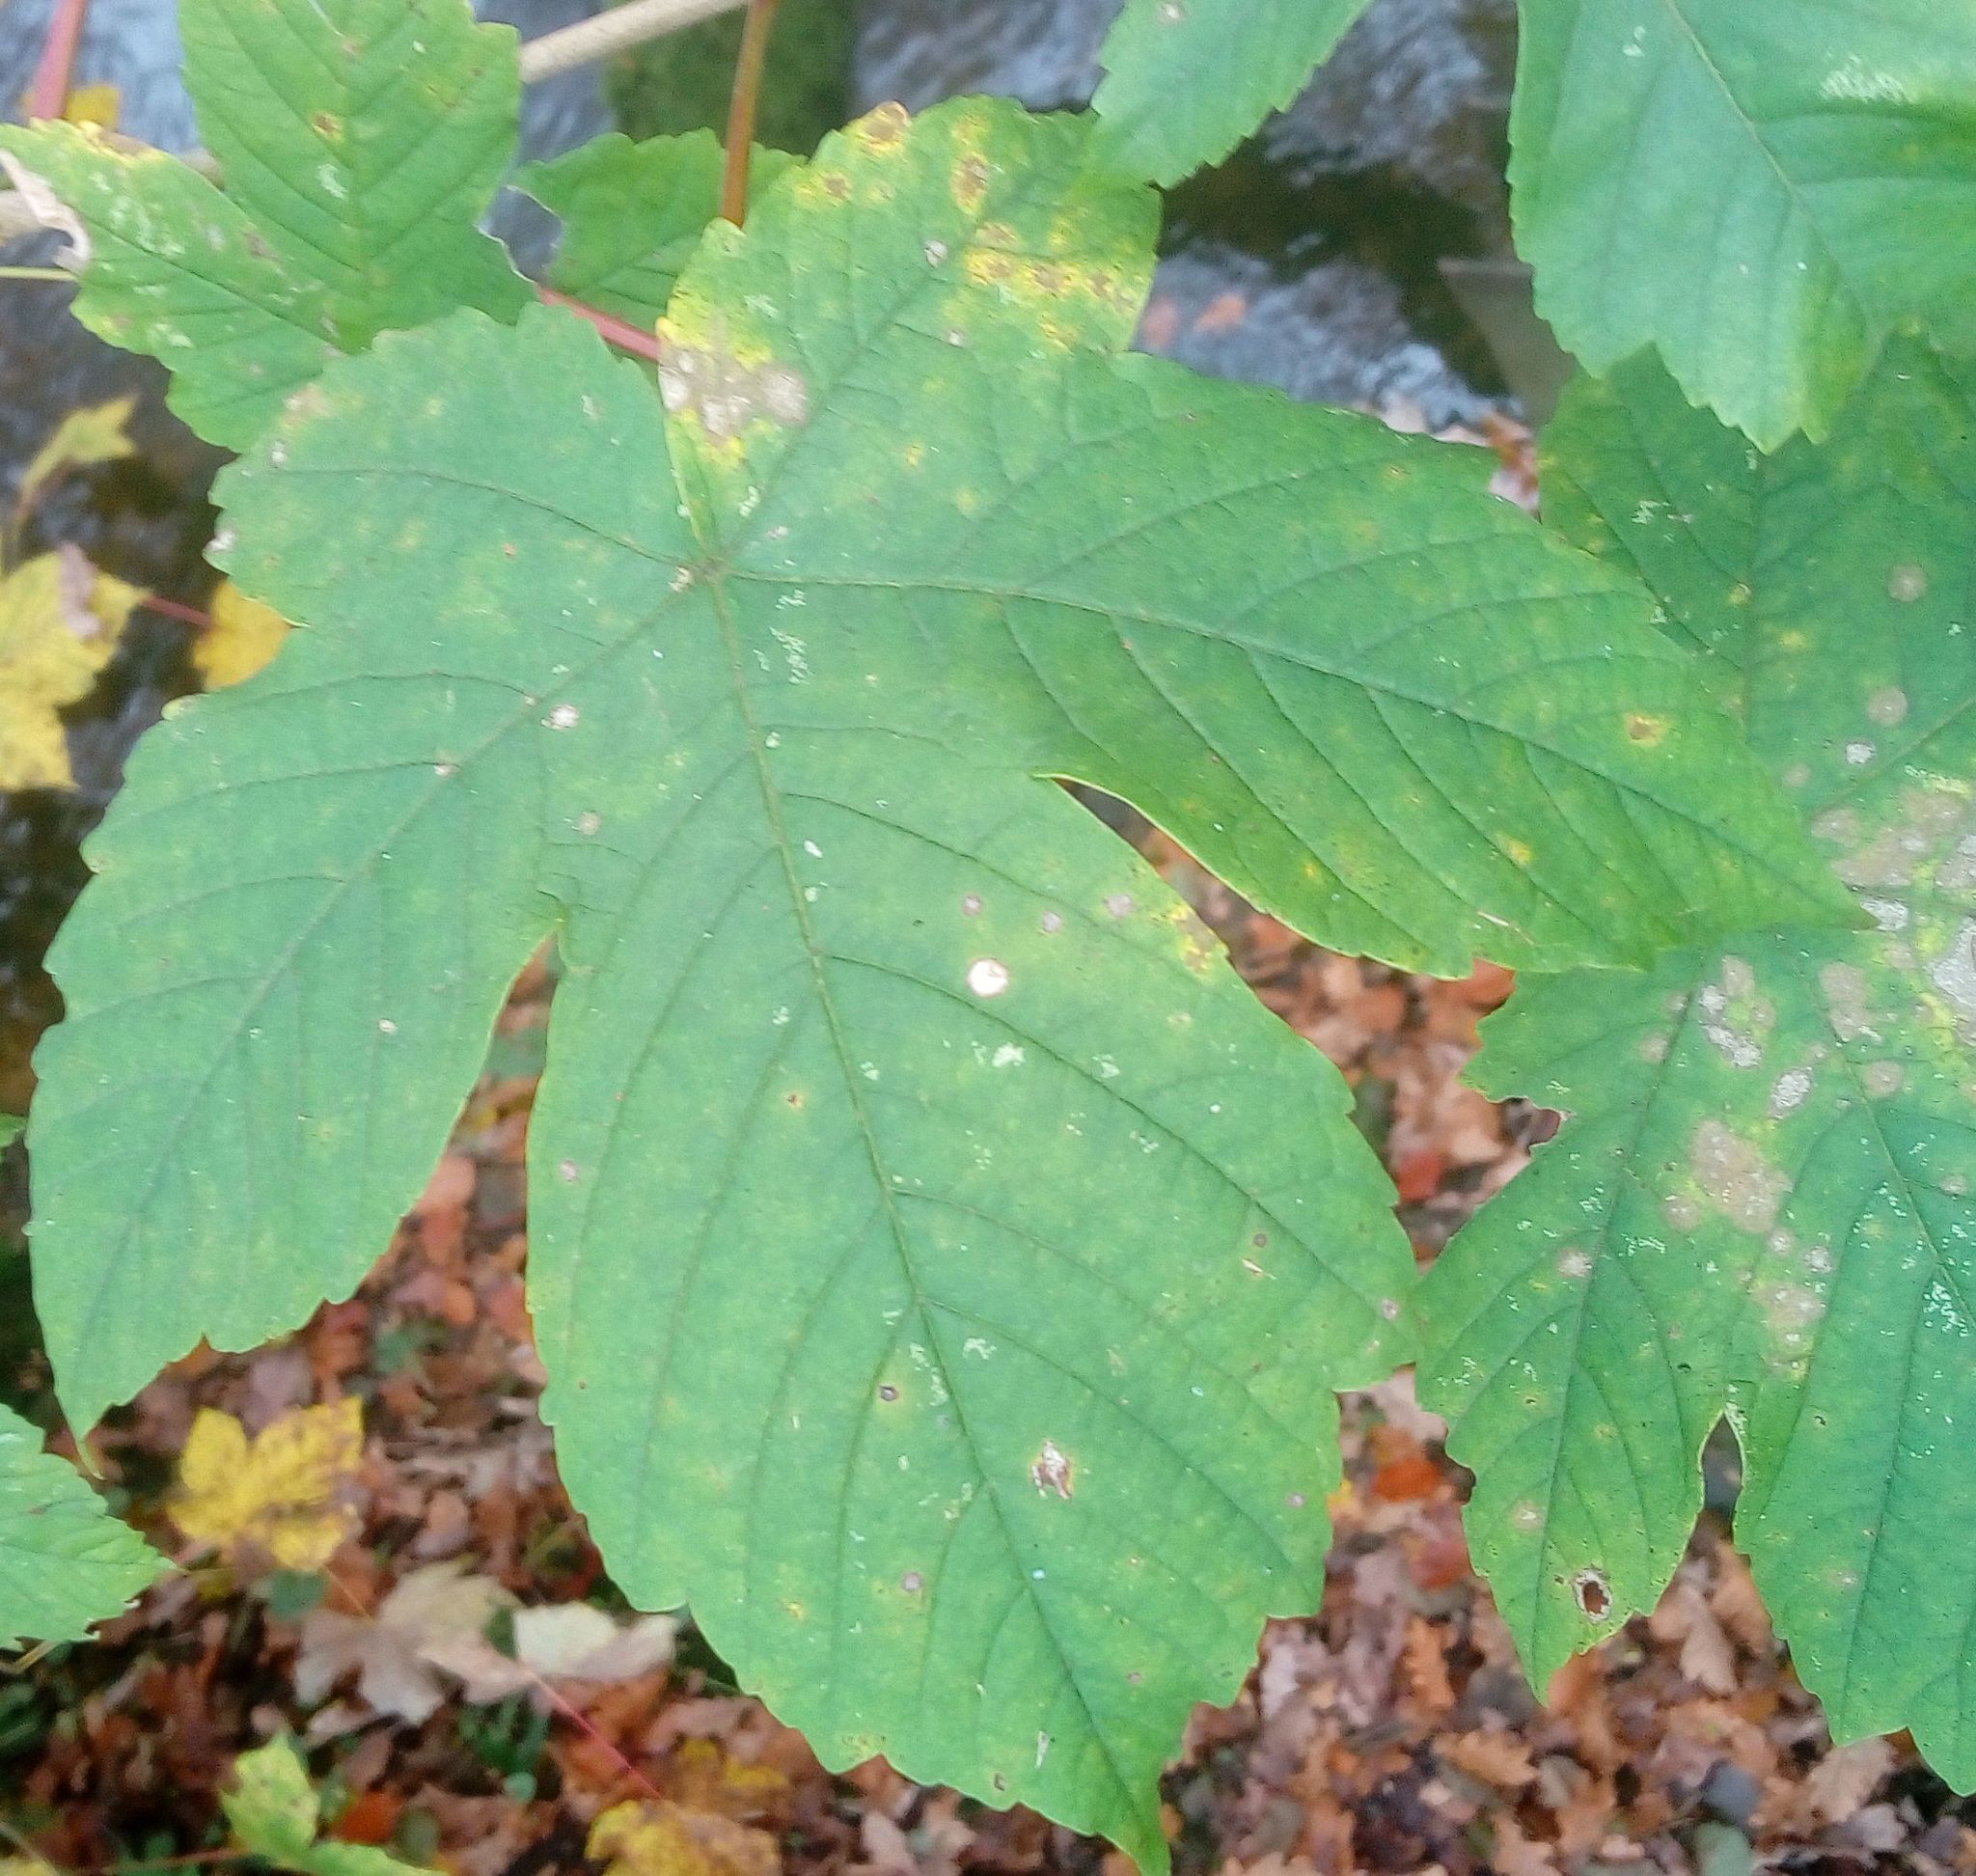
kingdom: Plantae
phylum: Tracheophyta
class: Magnoliopsida
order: Sapindales
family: Sapindaceae
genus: Acer
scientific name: Acer pseudoplatanus
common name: Sycamore
